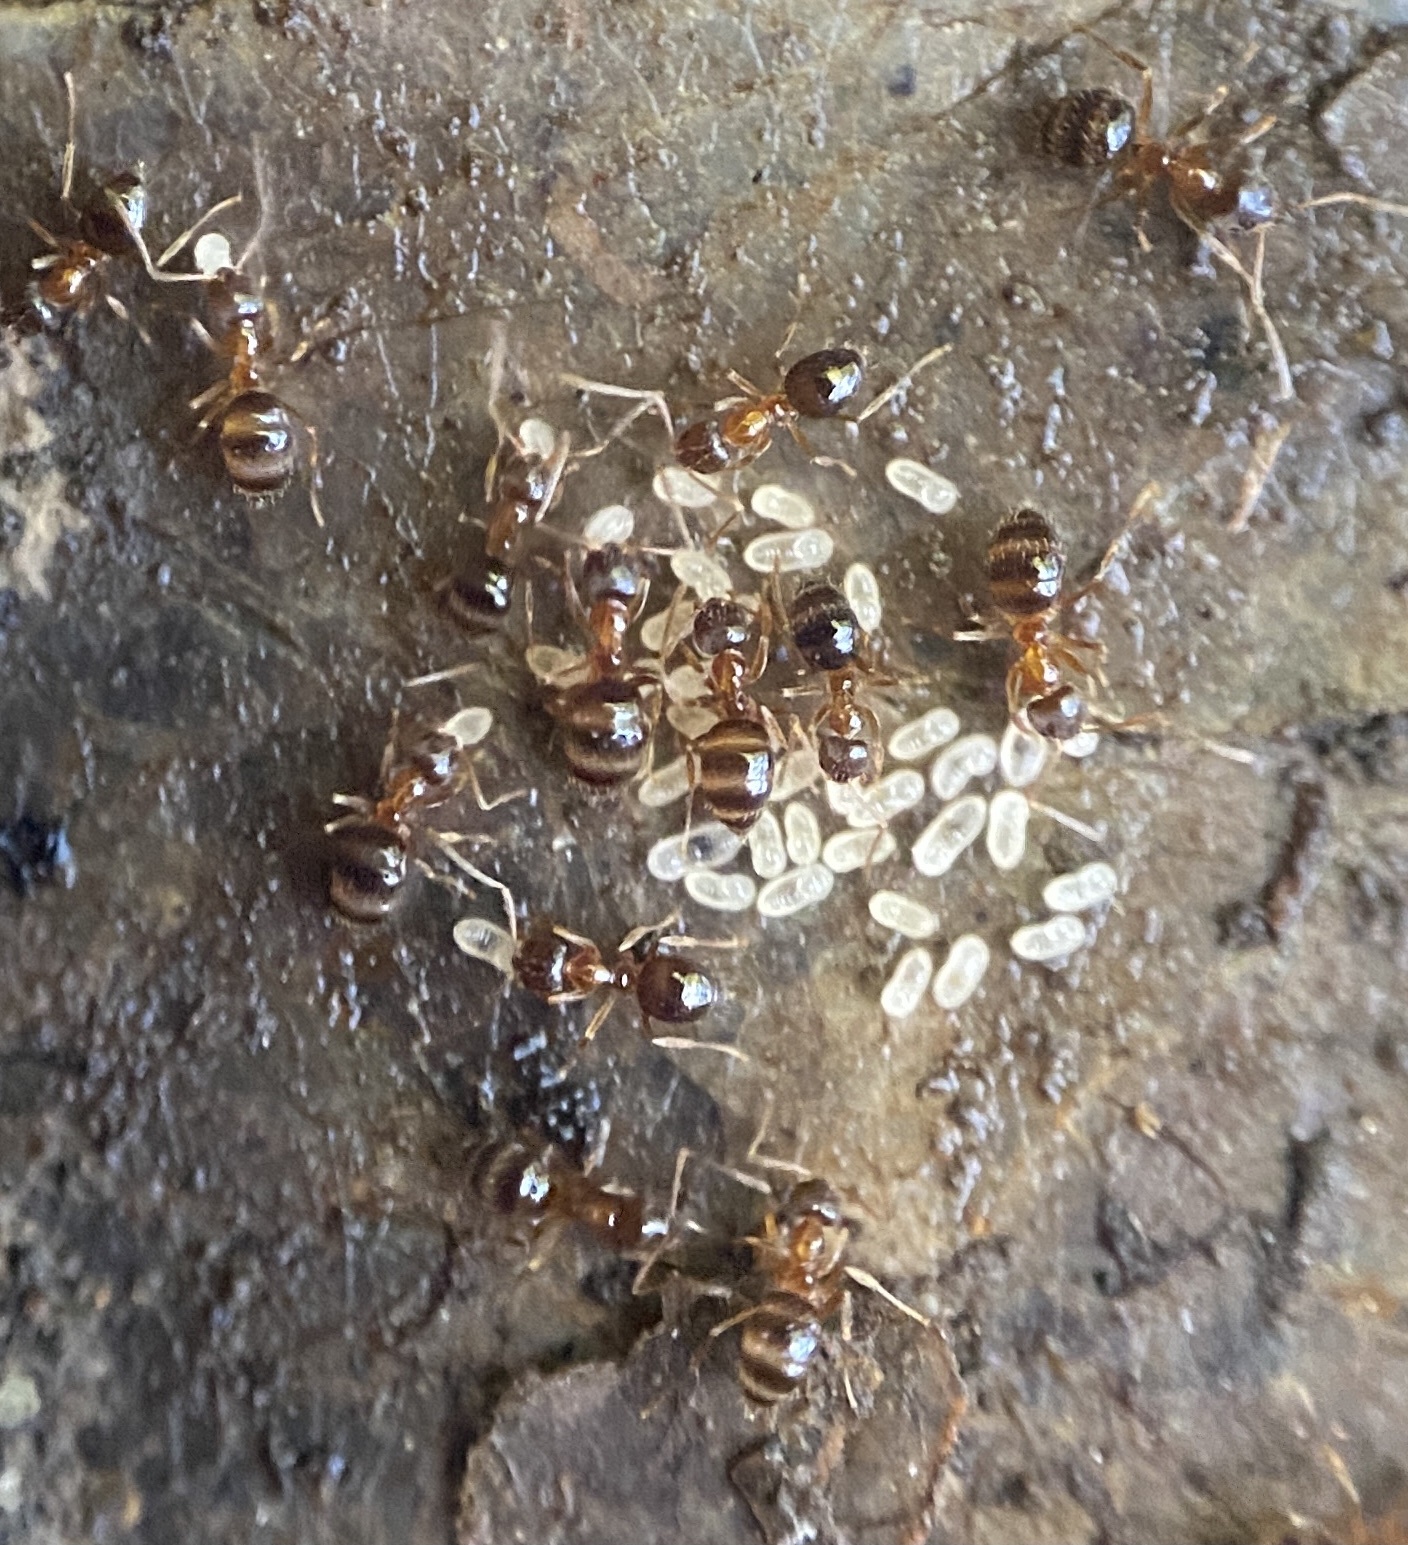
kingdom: Animalia
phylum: Arthropoda
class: Insecta
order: Hymenoptera
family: Formicidae
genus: Paratrechina
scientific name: Paratrechina flavipes
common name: Eastern asian formicine ant
